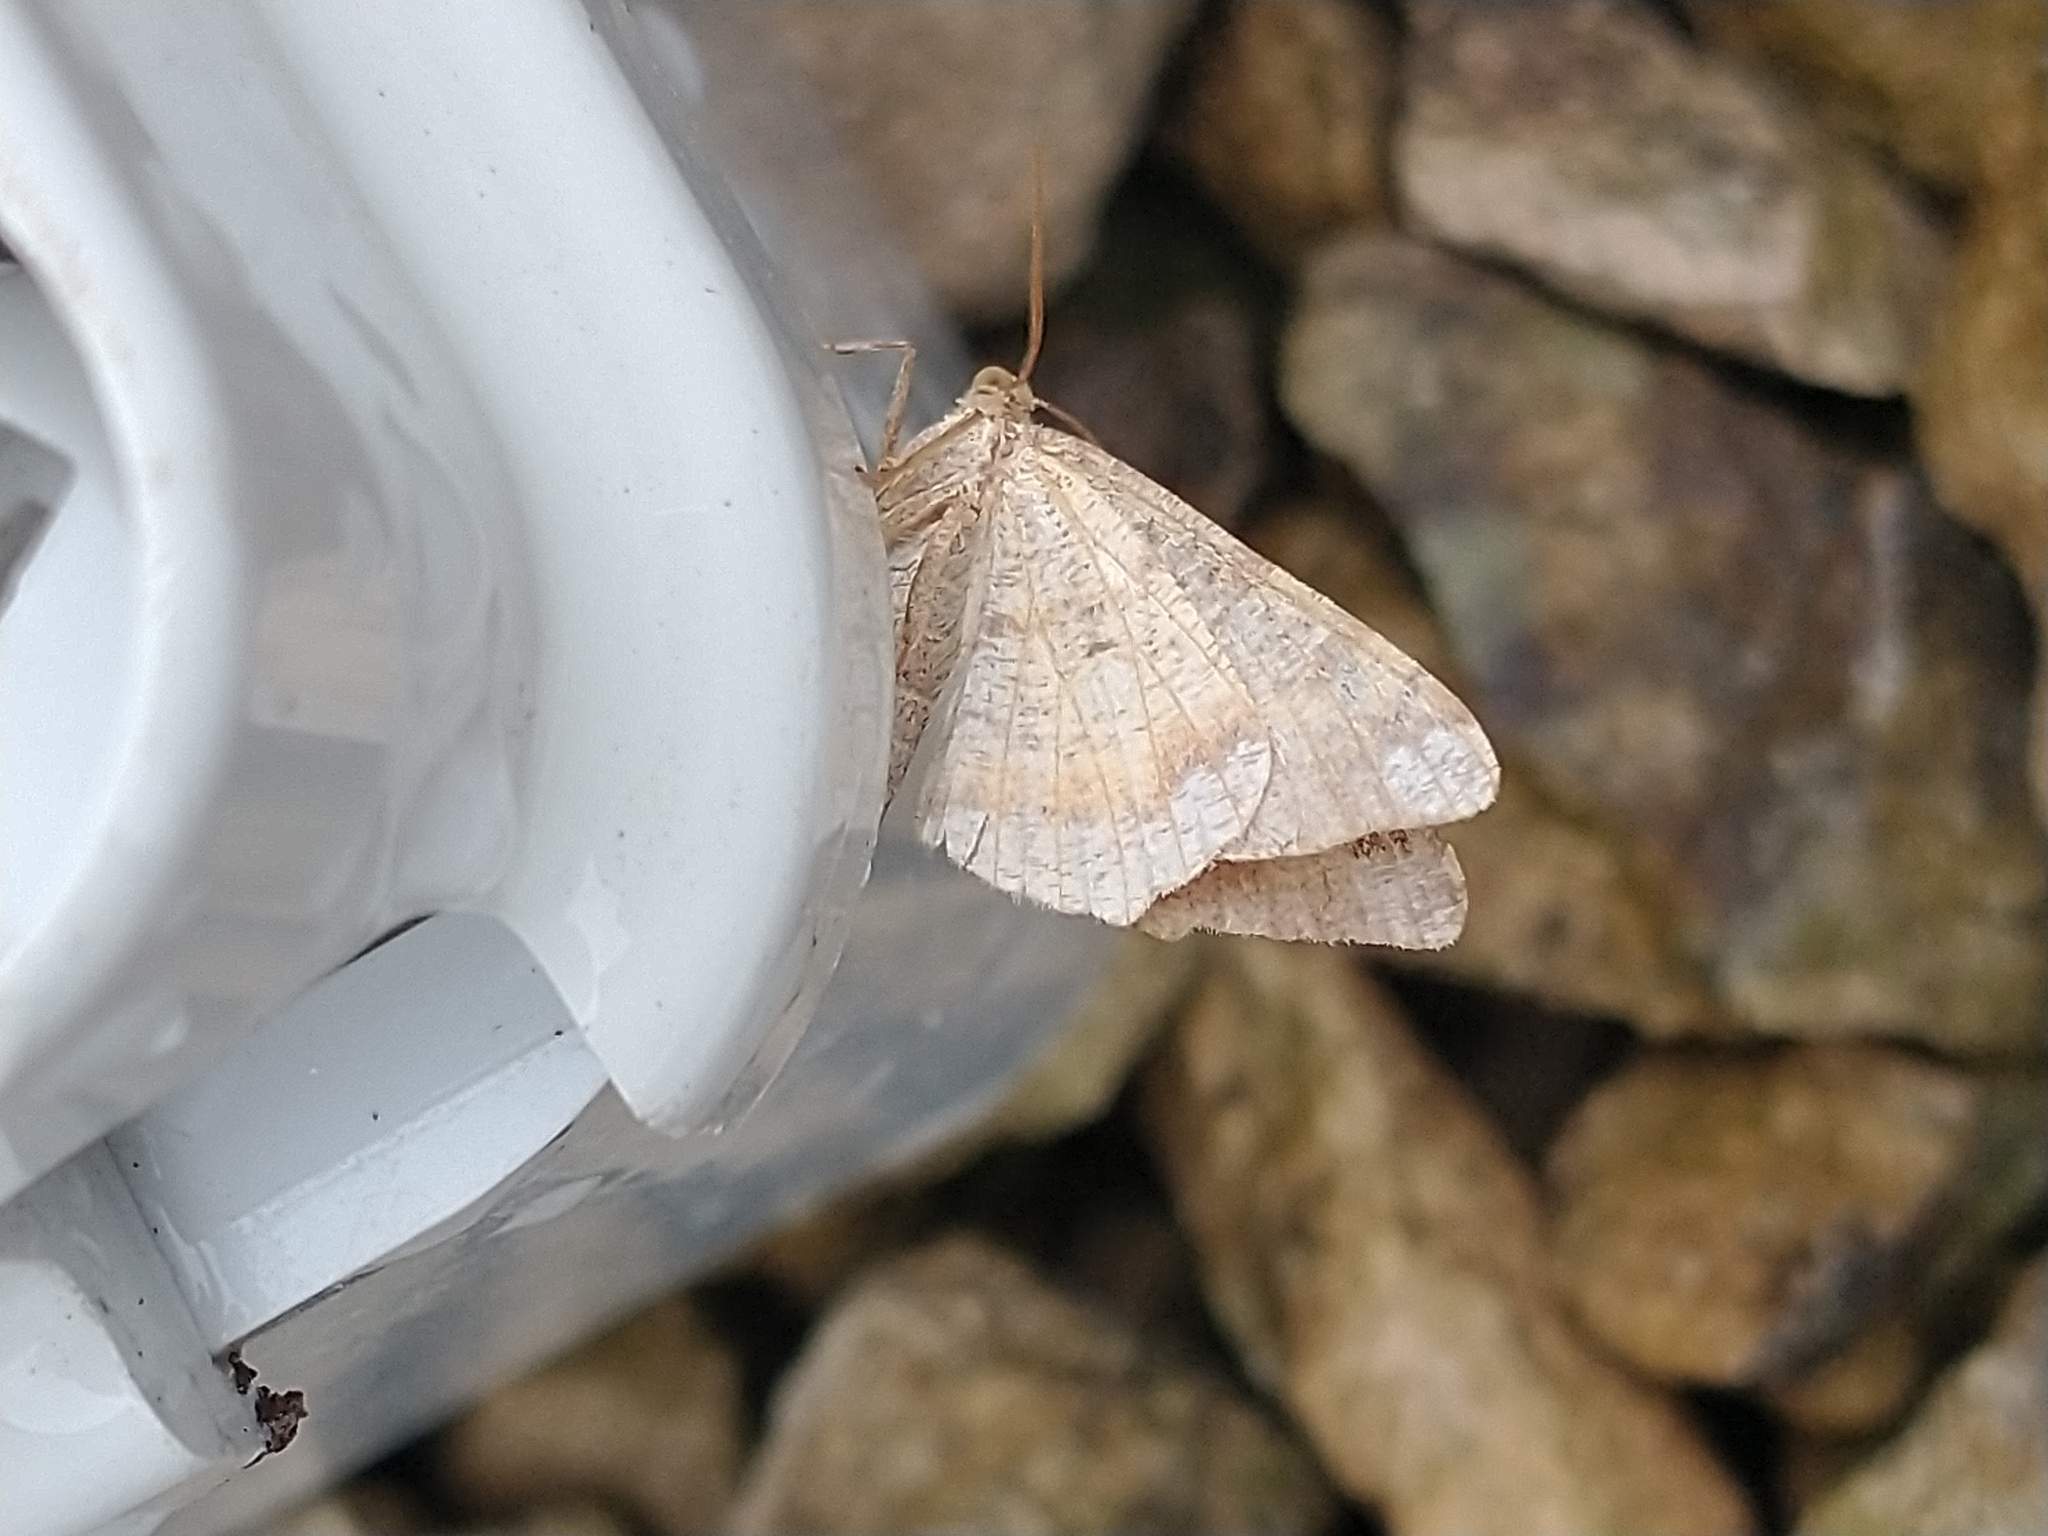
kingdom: Animalia
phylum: Arthropoda
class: Insecta
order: Lepidoptera
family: Geometridae
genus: Macaria
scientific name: Macaria liturata
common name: Tawny-barred angle
